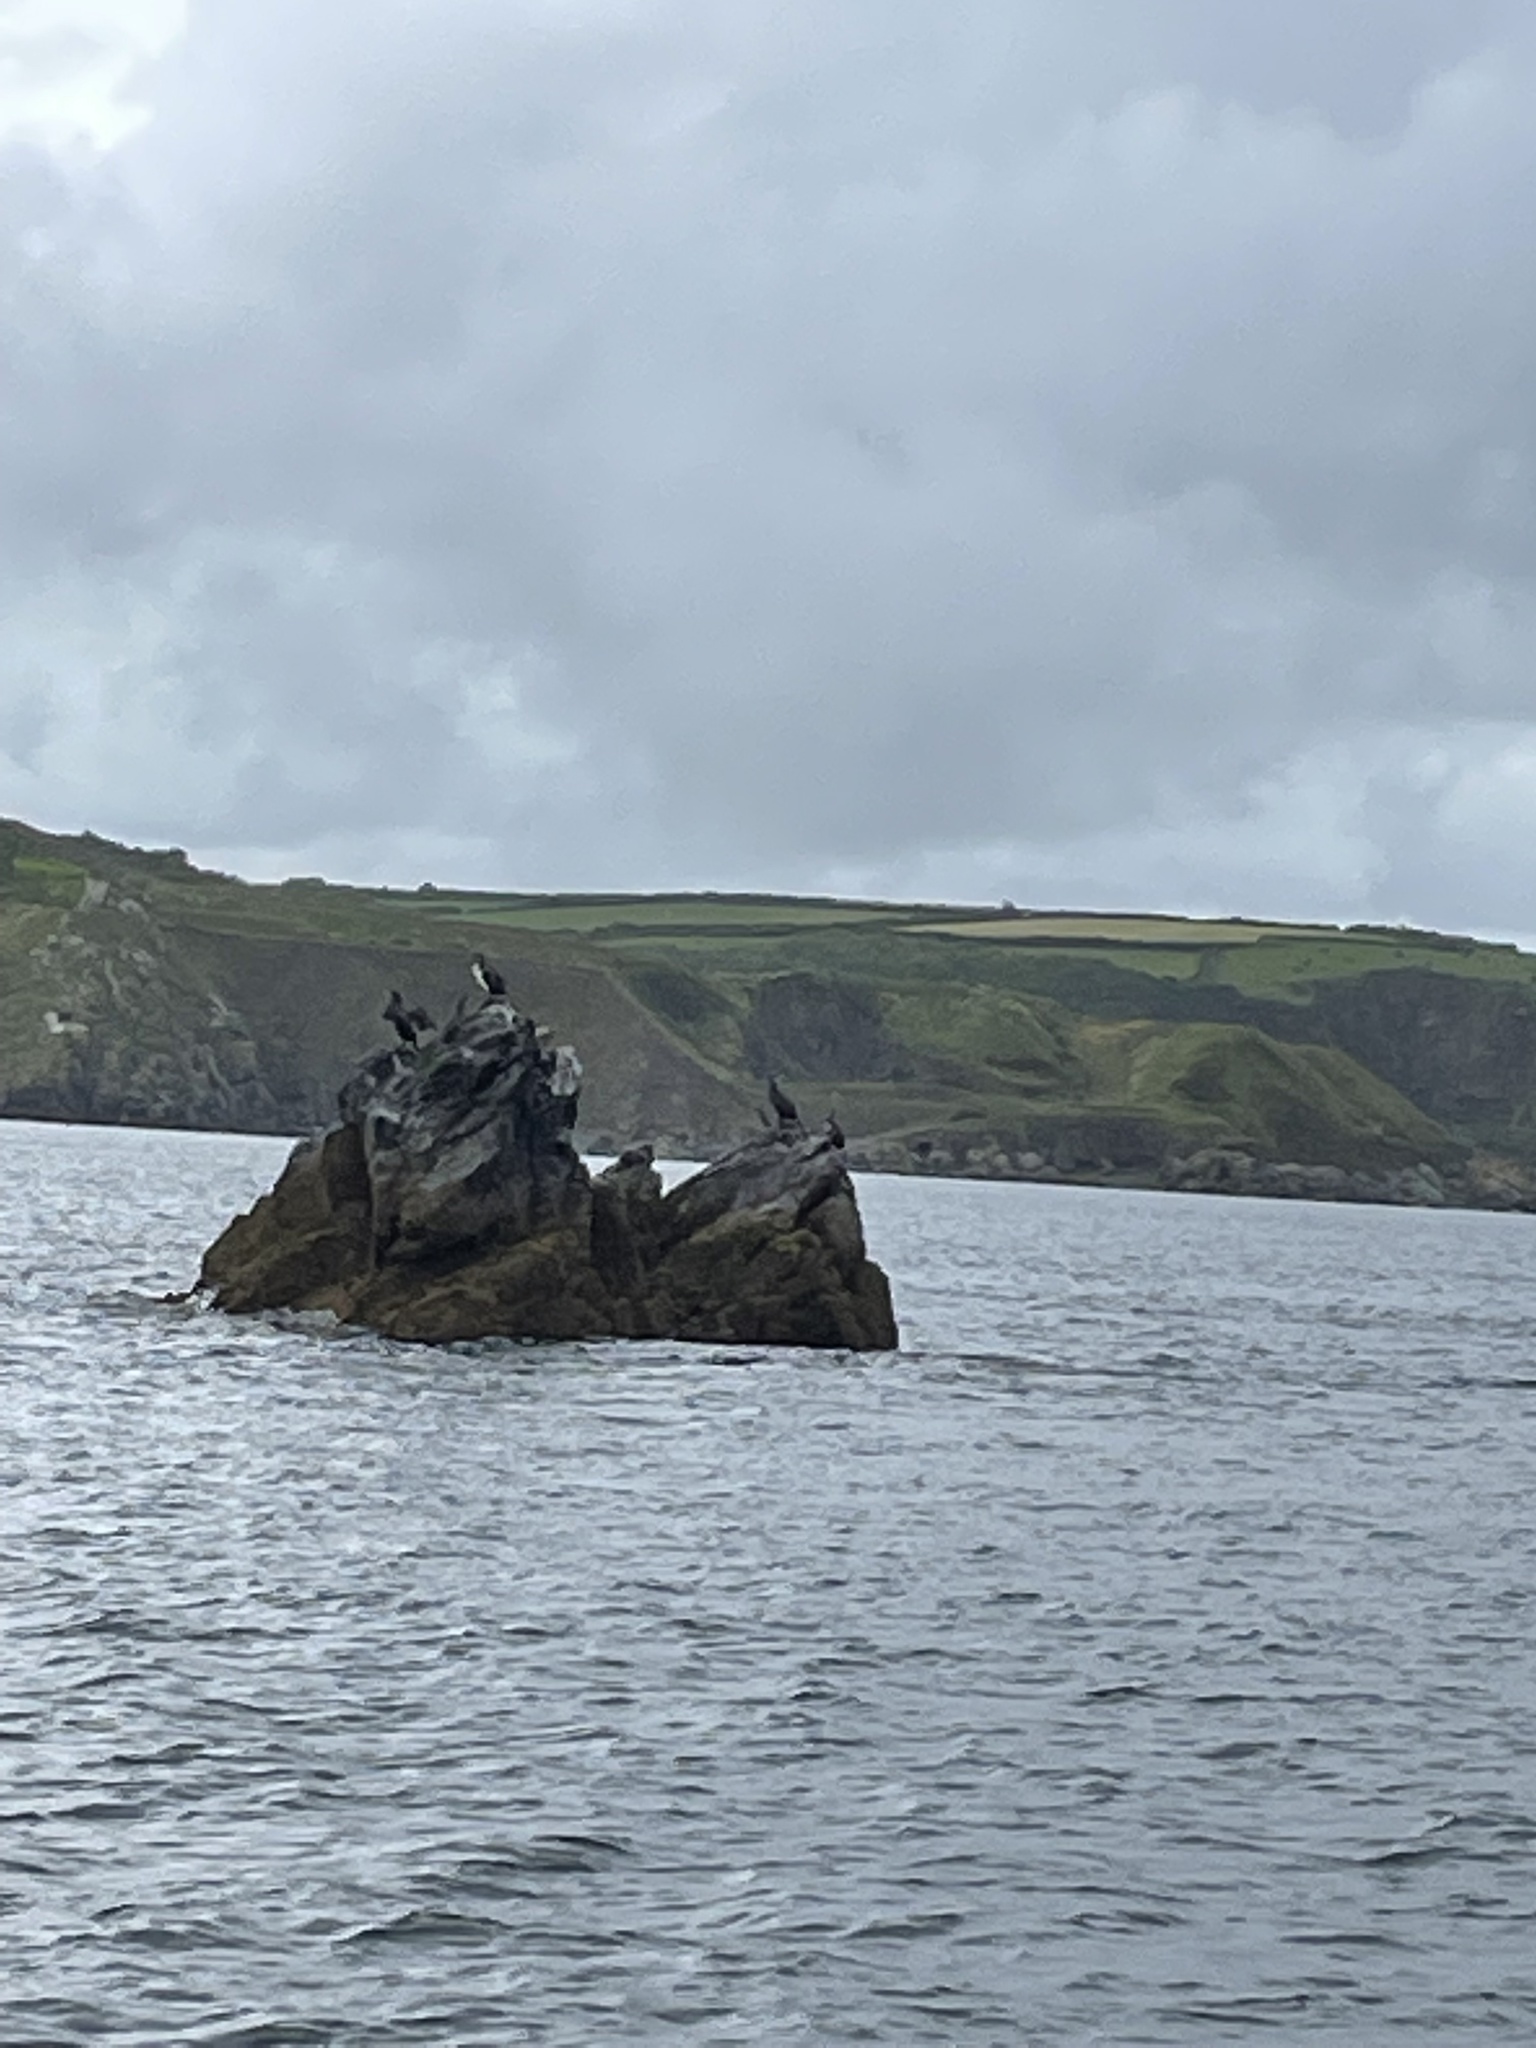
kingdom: Animalia
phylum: Chordata
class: Aves
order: Suliformes
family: Phalacrocoracidae
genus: Phalacrocorax
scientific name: Phalacrocorax carbo
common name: Great cormorant
